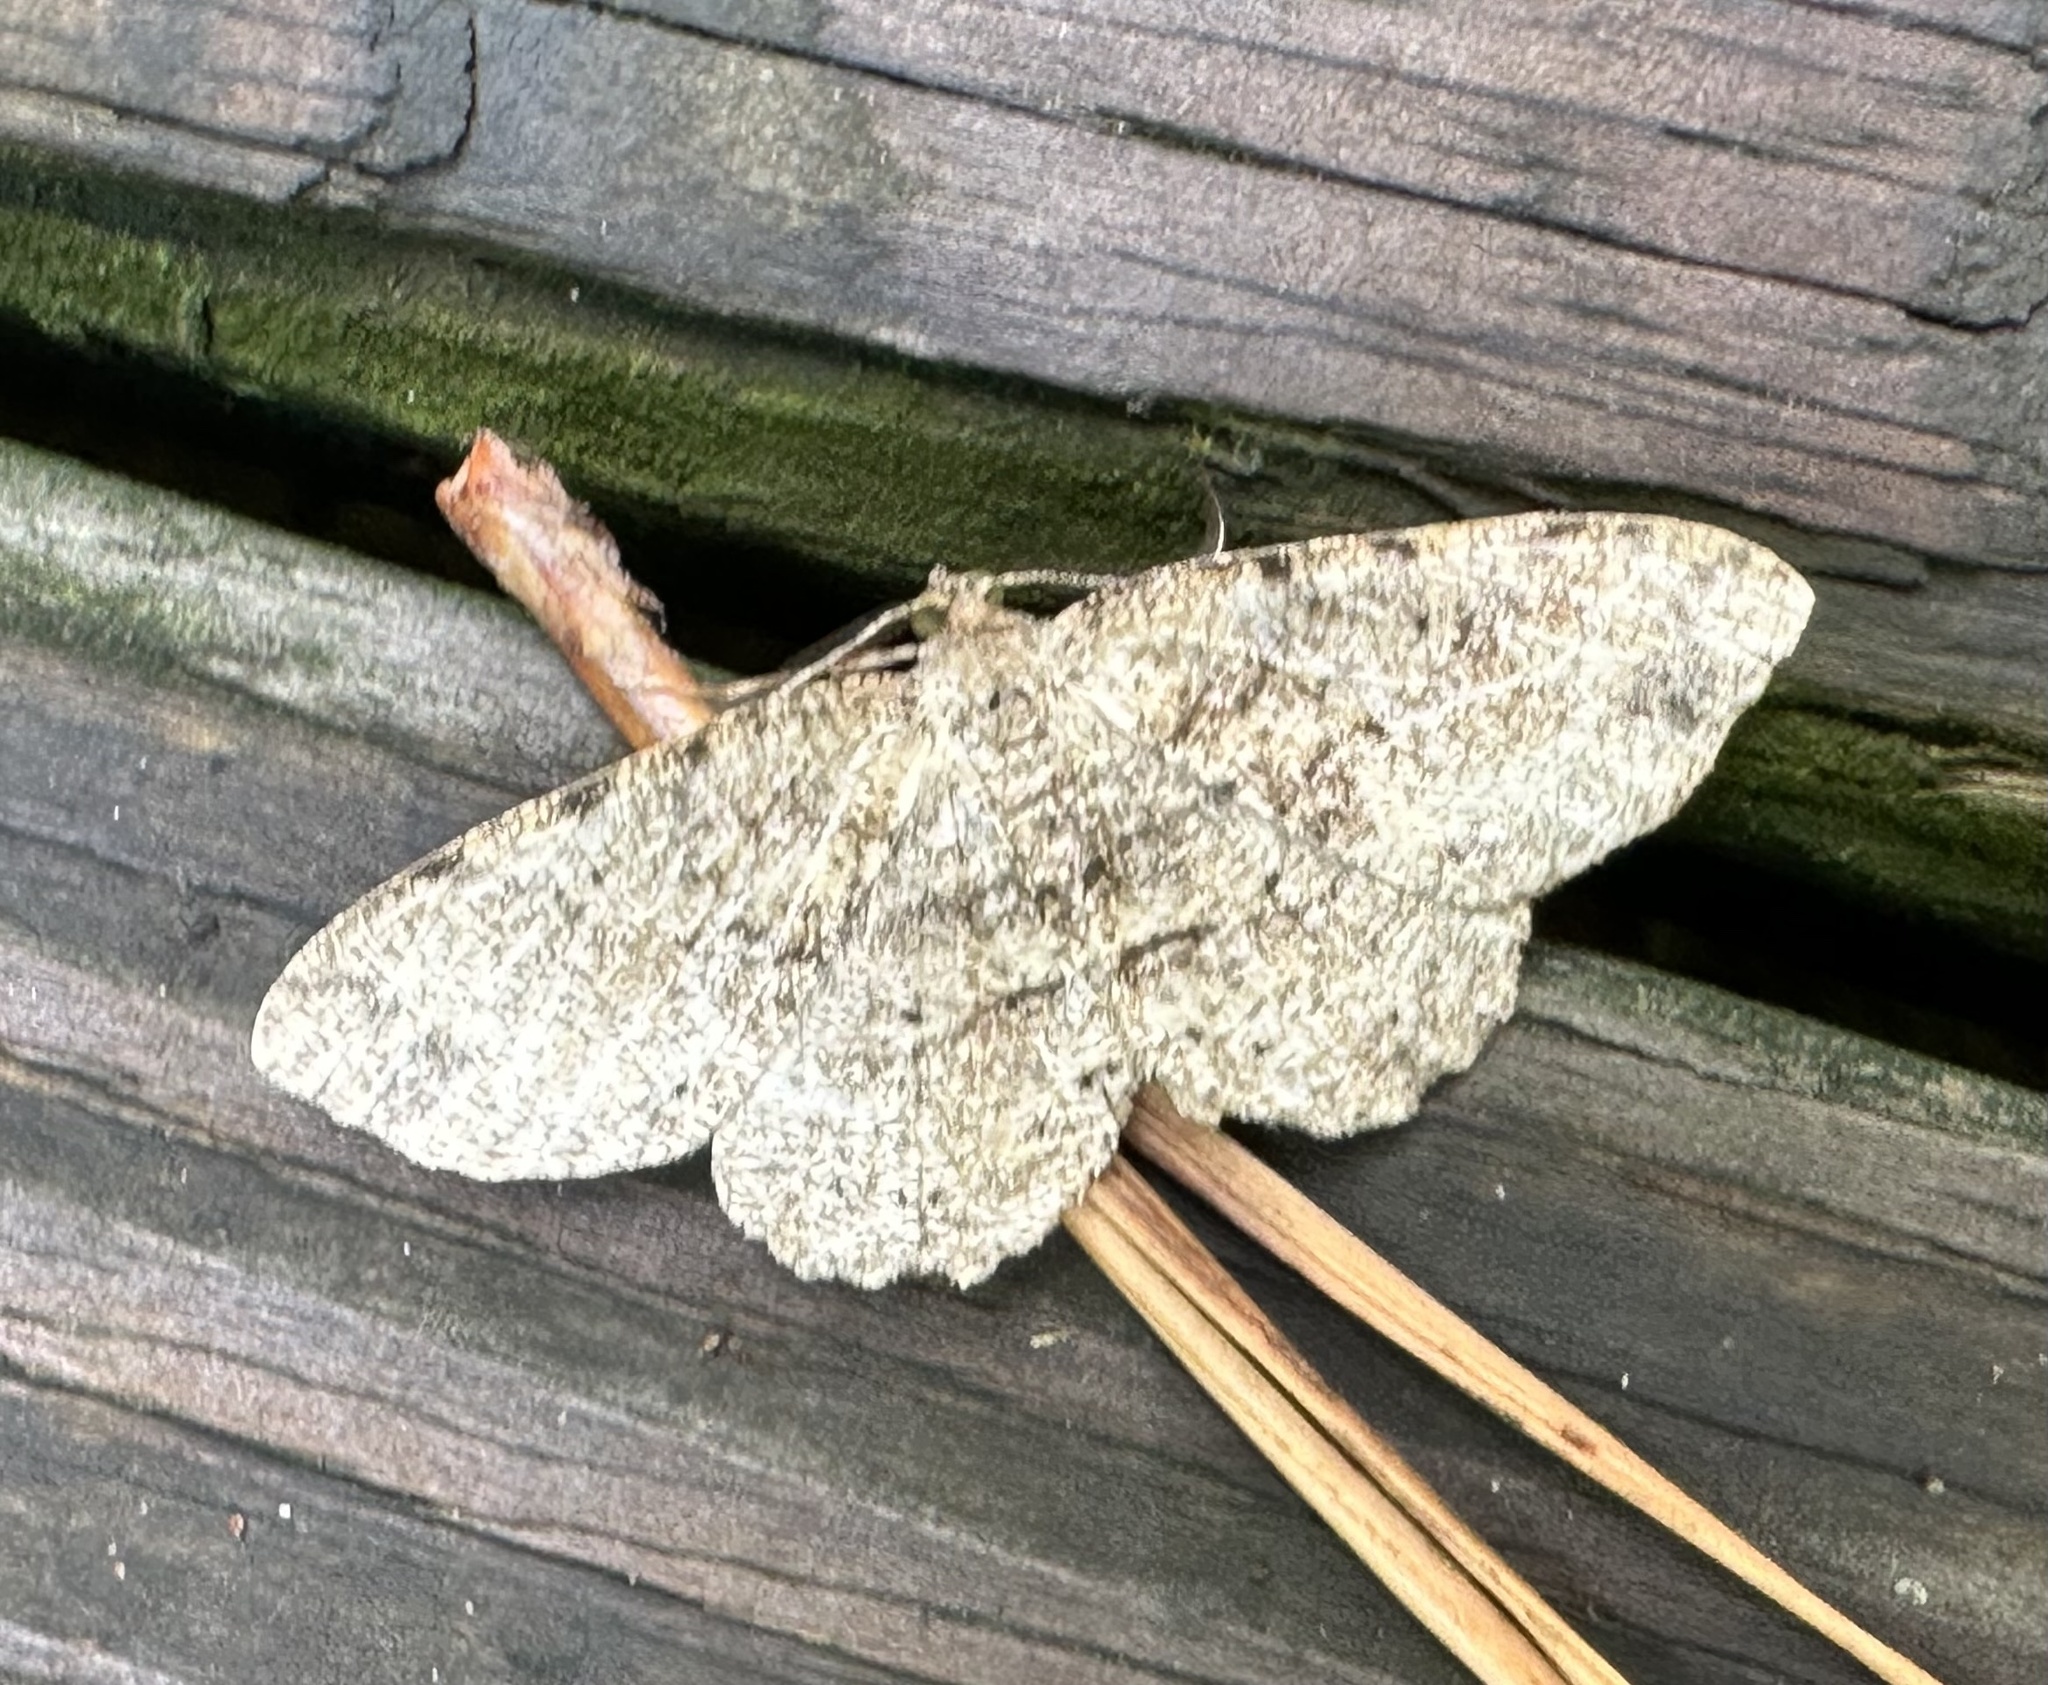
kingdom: Animalia
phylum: Arthropoda
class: Insecta
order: Lepidoptera
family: Geometridae
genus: Melanolophia
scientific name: Melanolophia canadaria
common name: Canadian melanolophia
